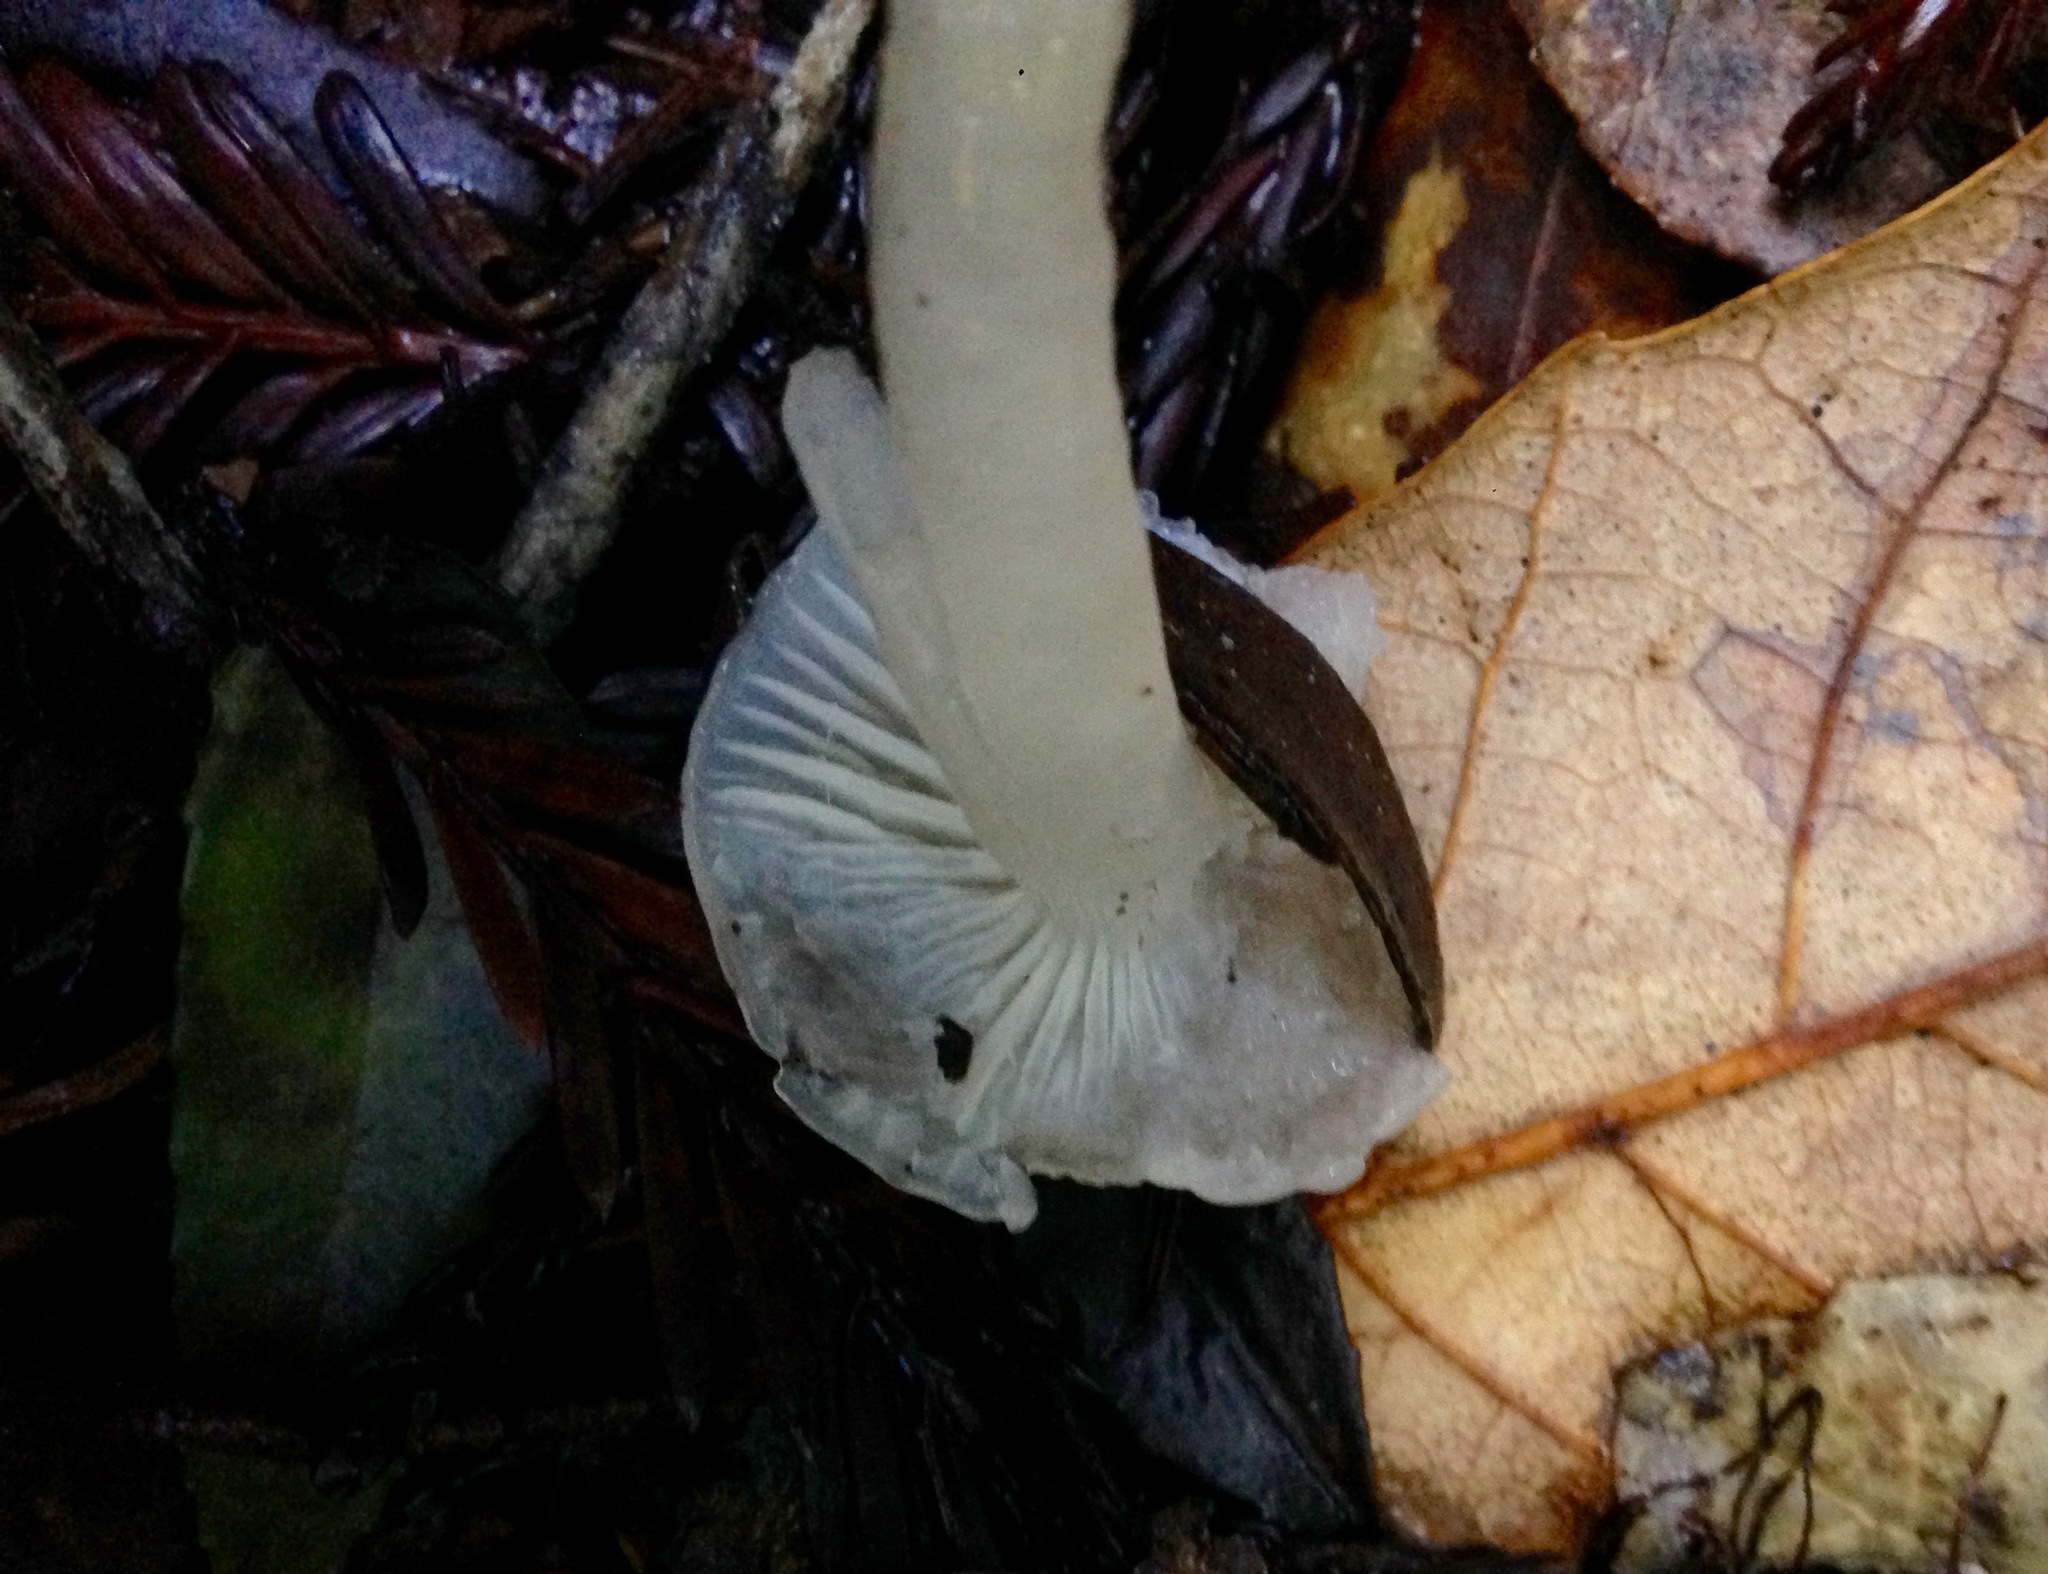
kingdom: Fungi
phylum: Basidiomycota
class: Agaricomycetes
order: Agaricales
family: Hygrophoraceae
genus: Gliophorus
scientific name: Gliophorus irrigatus
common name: Slimy waxcap
